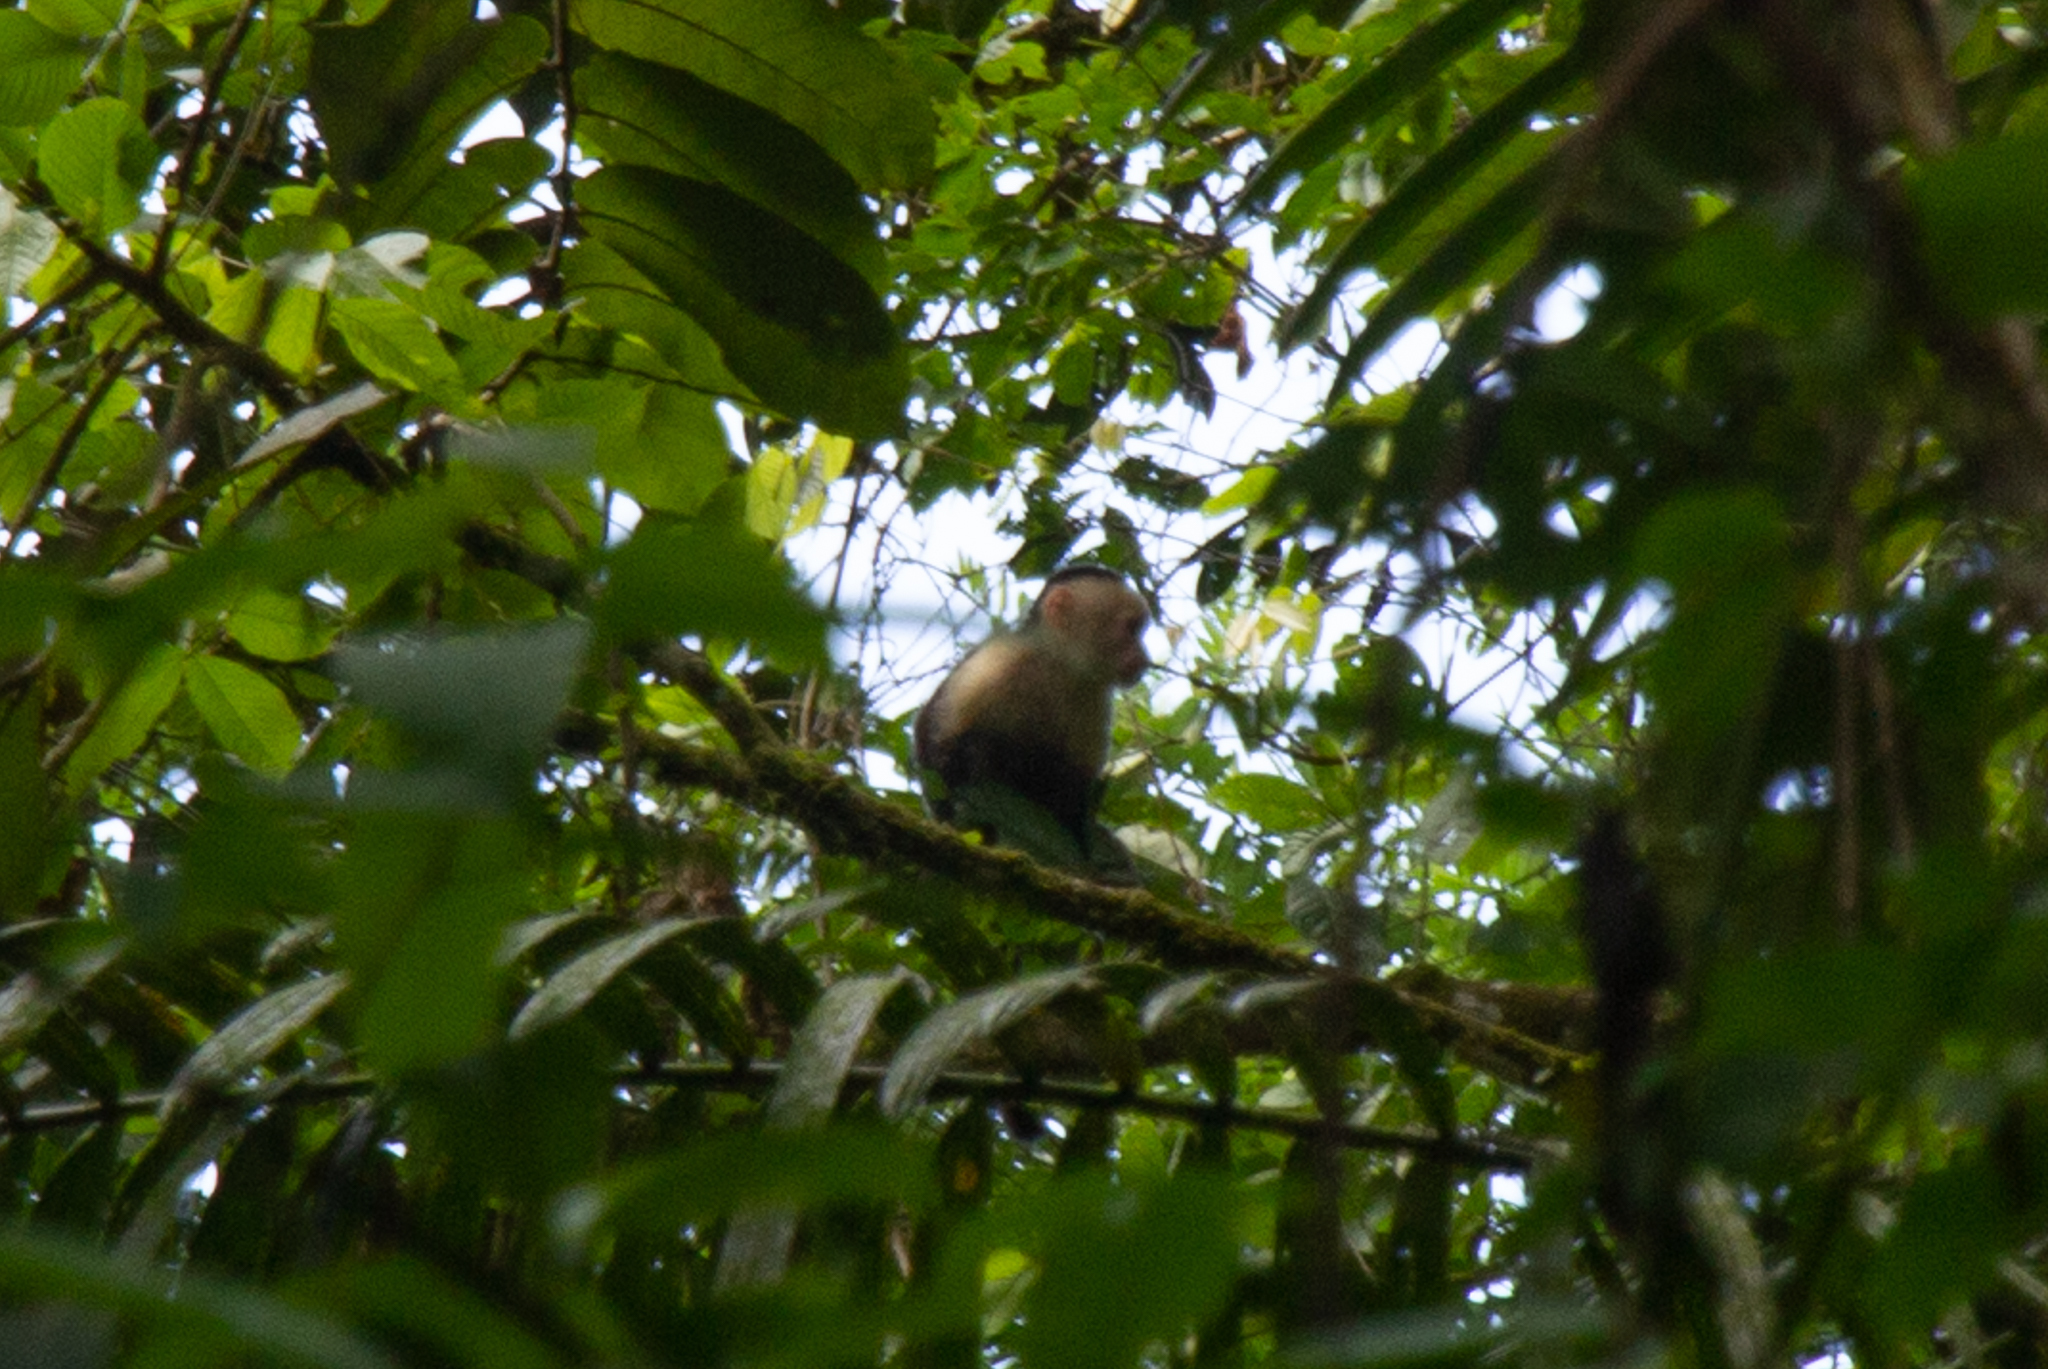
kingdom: Animalia
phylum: Chordata
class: Mammalia
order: Primates
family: Cebidae
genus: Cebus
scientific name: Cebus imitator
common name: Panamanian white-faced capuchin
